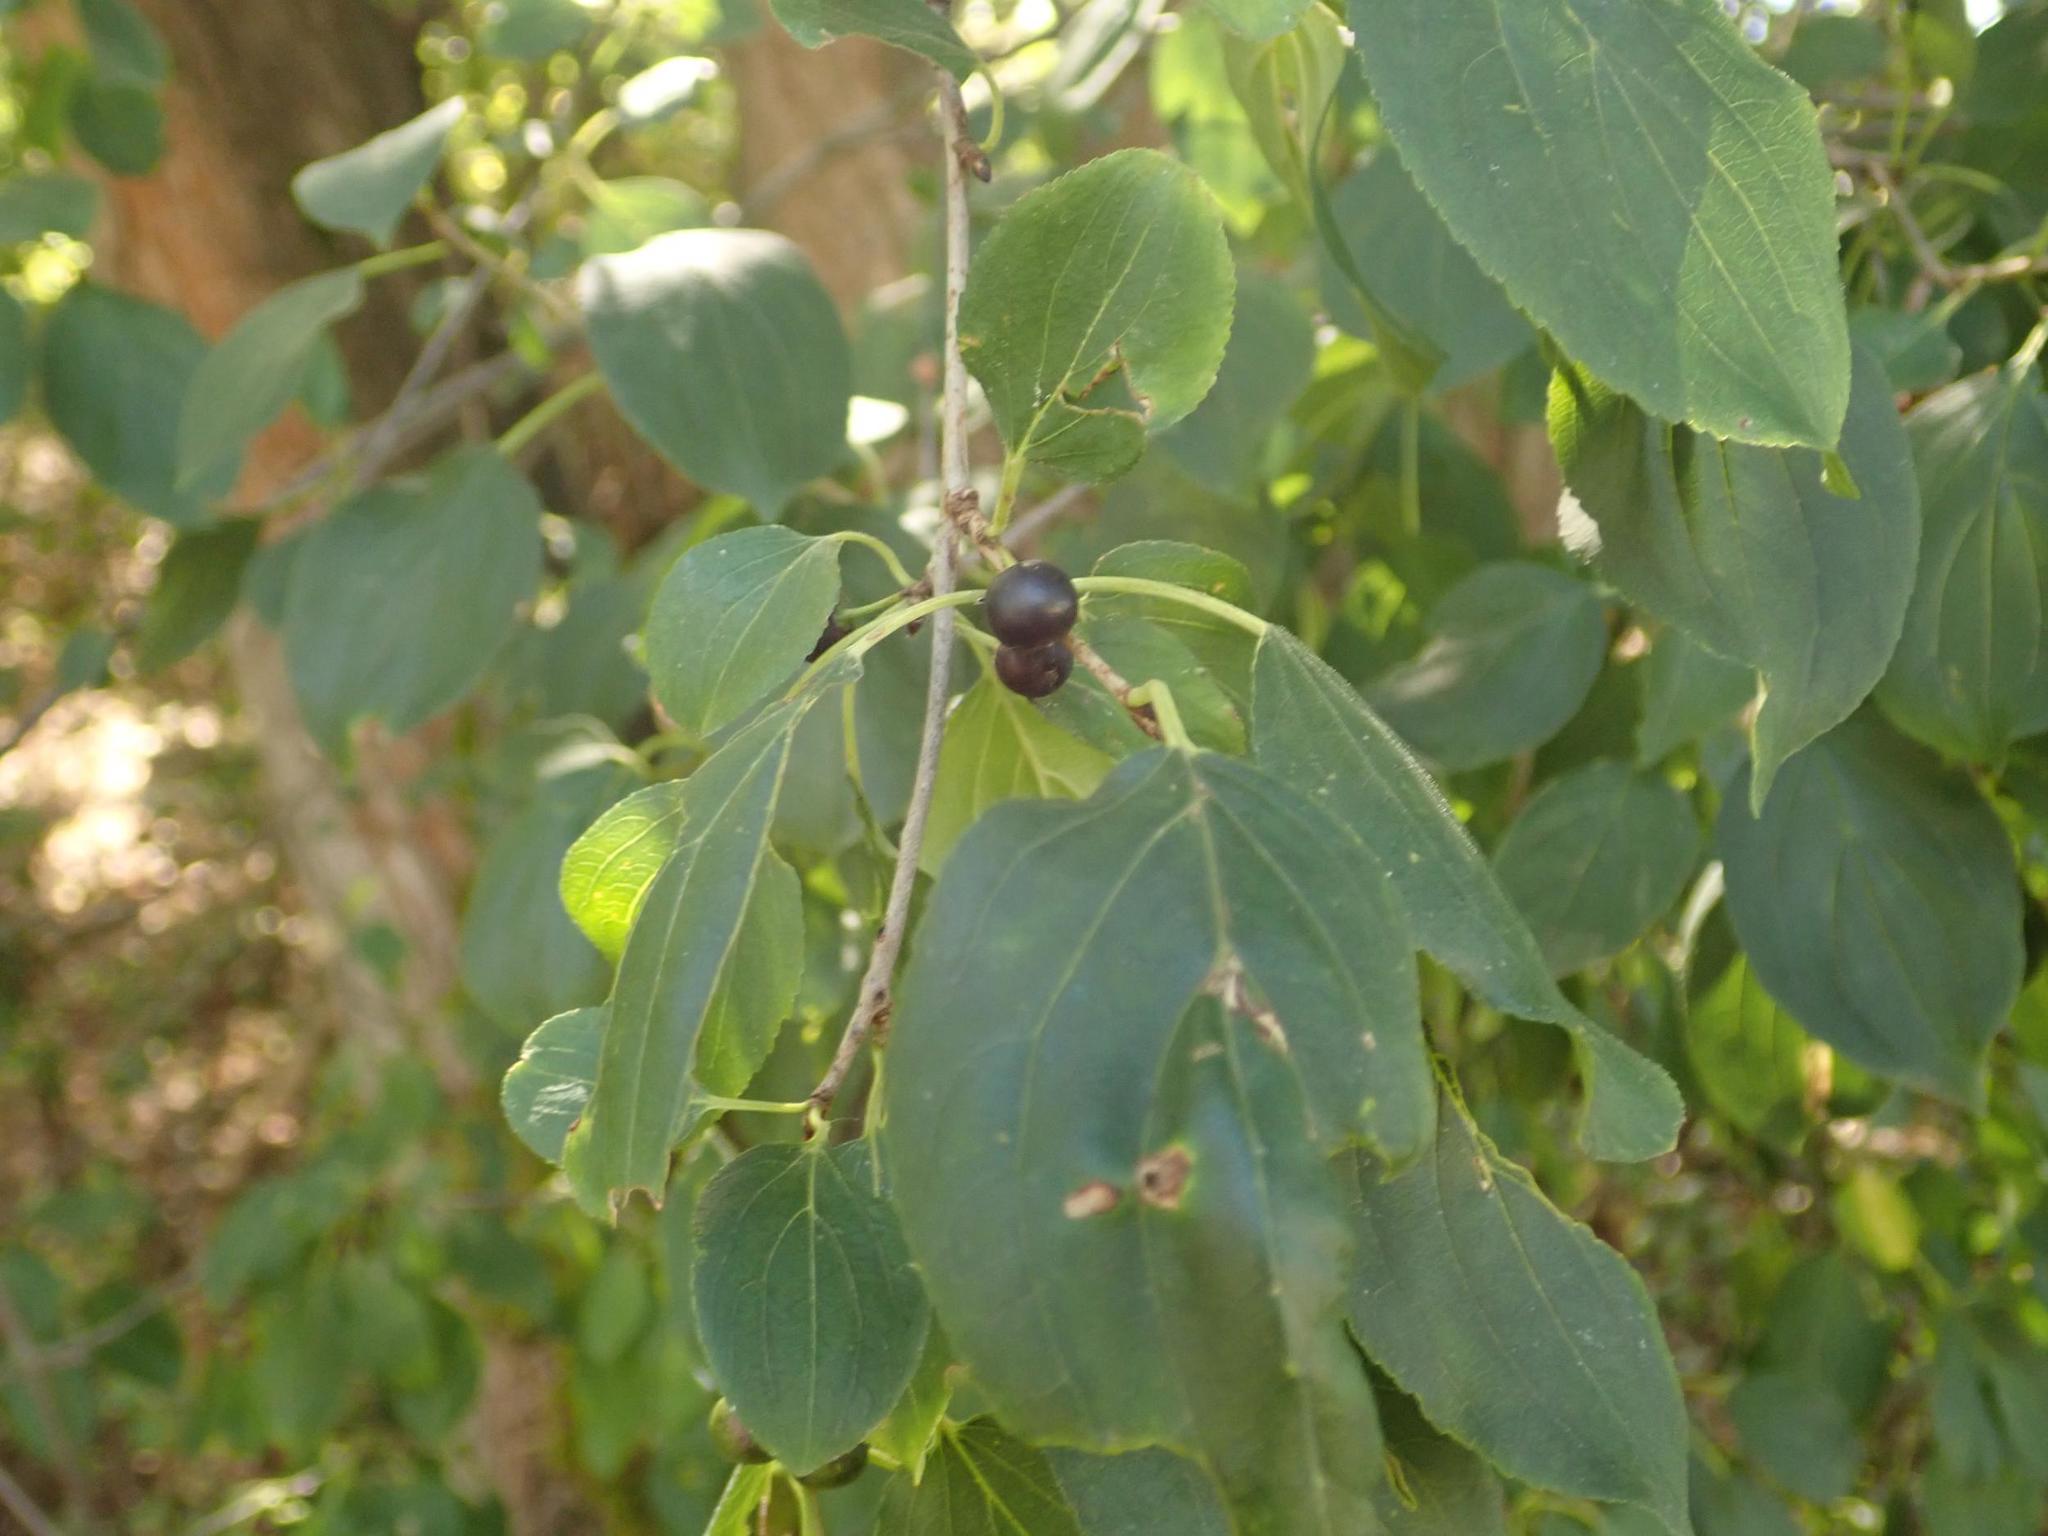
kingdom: Plantae
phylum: Tracheophyta
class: Magnoliopsida
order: Rosales
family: Rhamnaceae
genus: Rhamnus
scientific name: Rhamnus cathartica
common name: Common buckthorn
